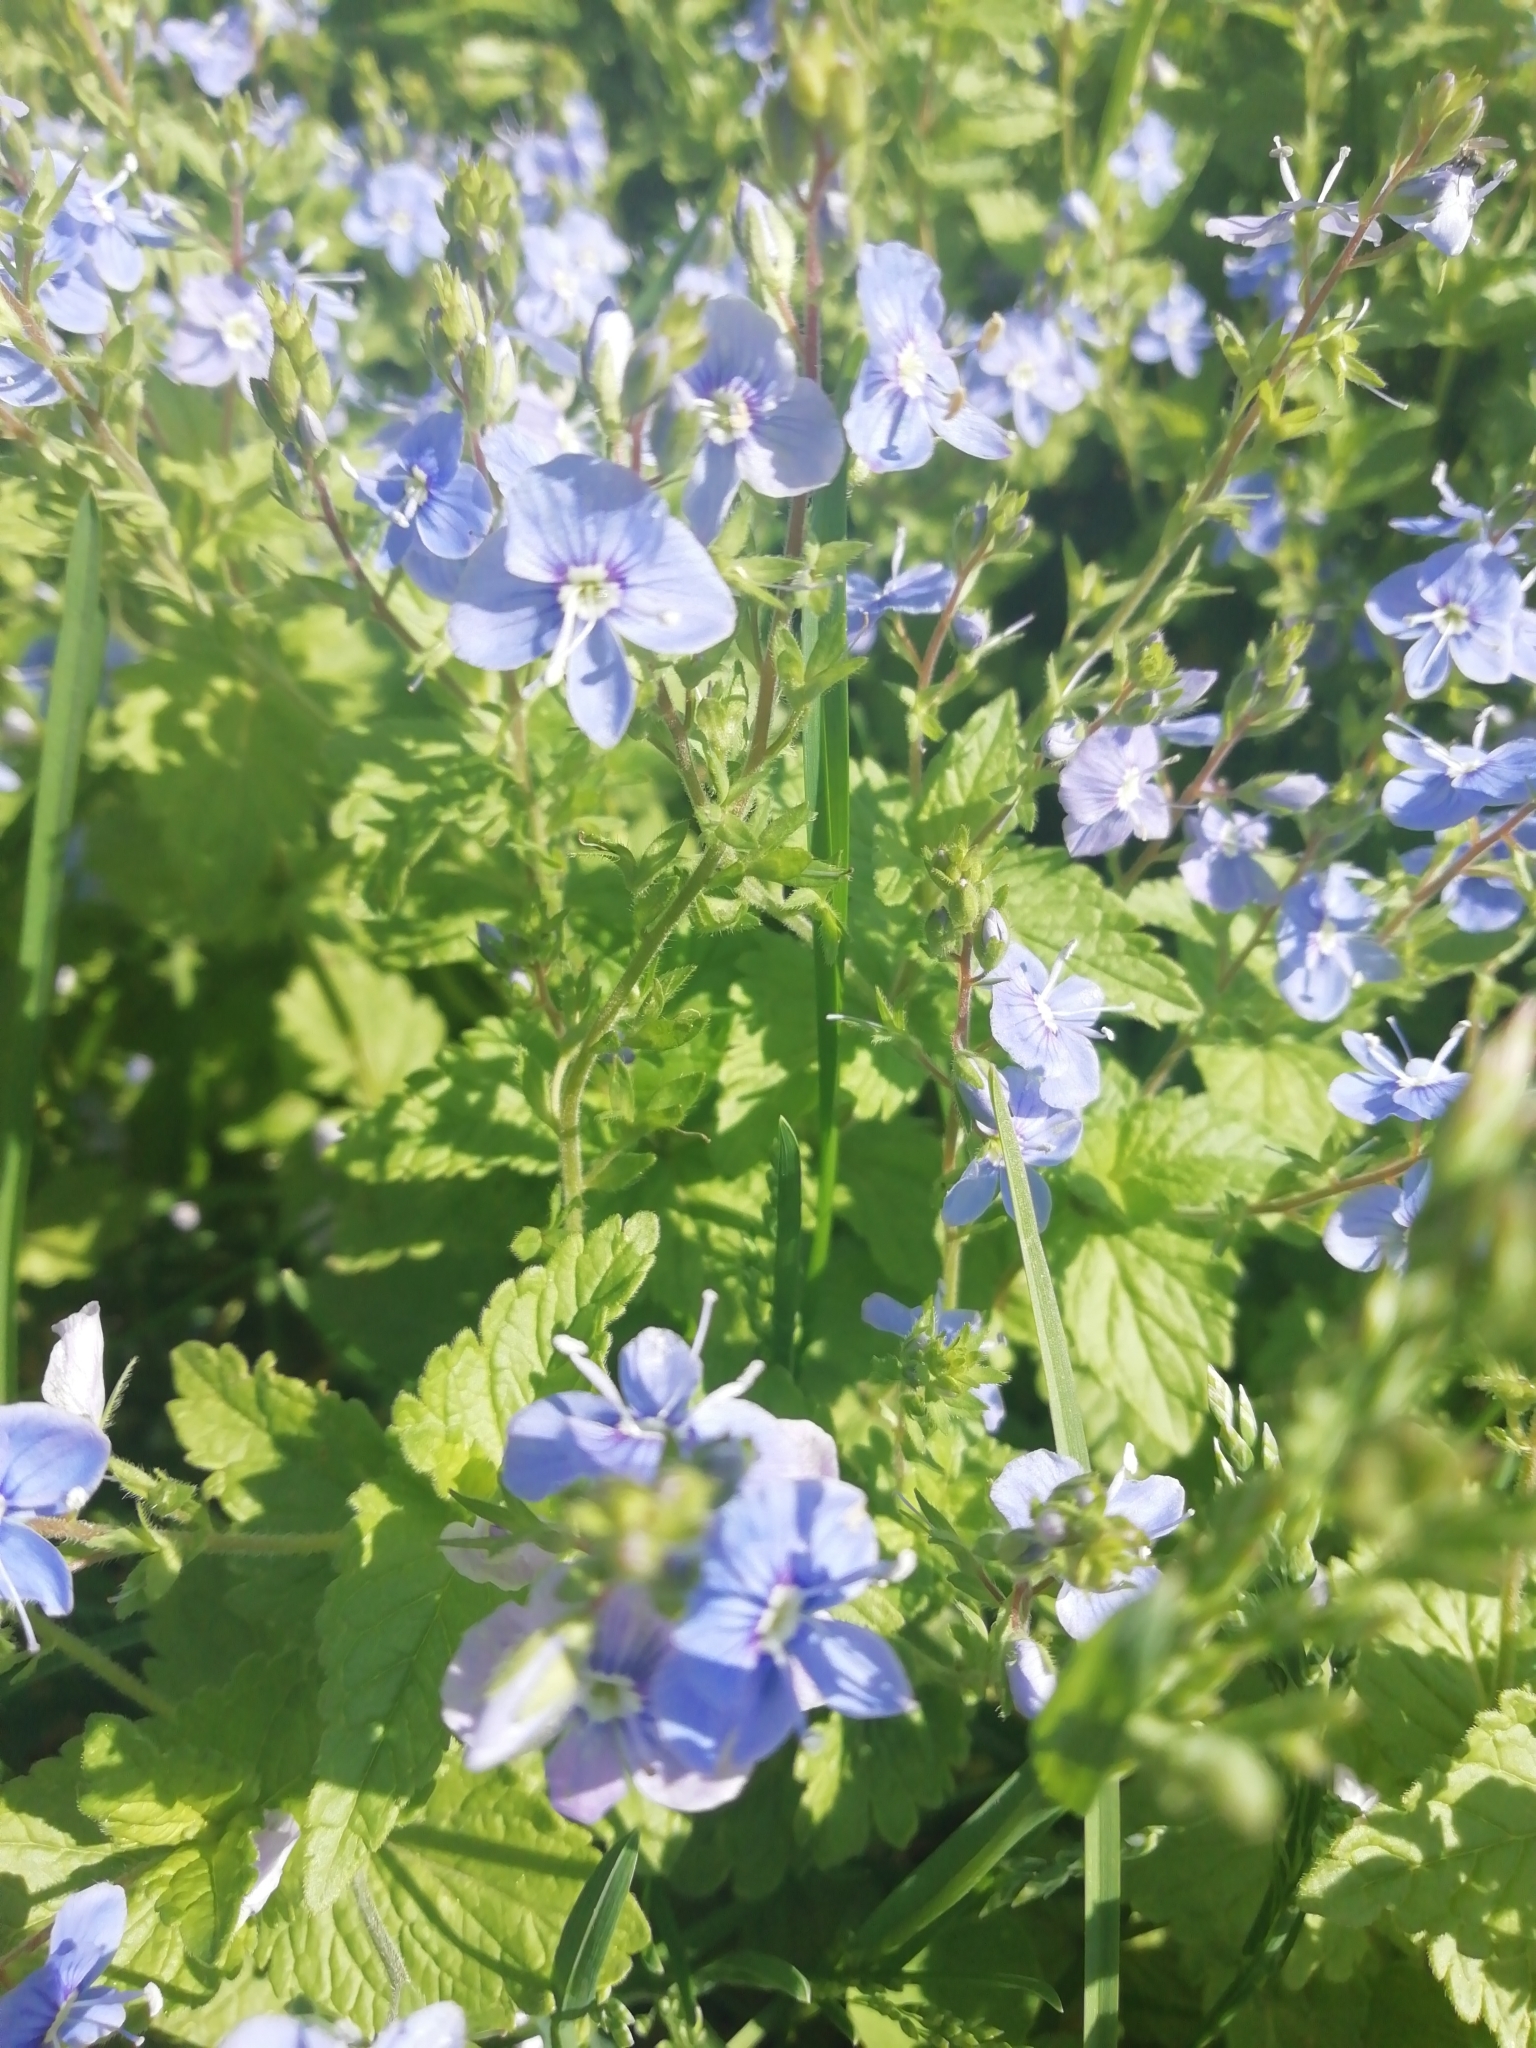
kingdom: Plantae
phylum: Tracheophyta
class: Magnoliopsida
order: Lamiales
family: Plantaginaceae
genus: Veronica
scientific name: Veronica chamaedrys
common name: Germander speedwell
